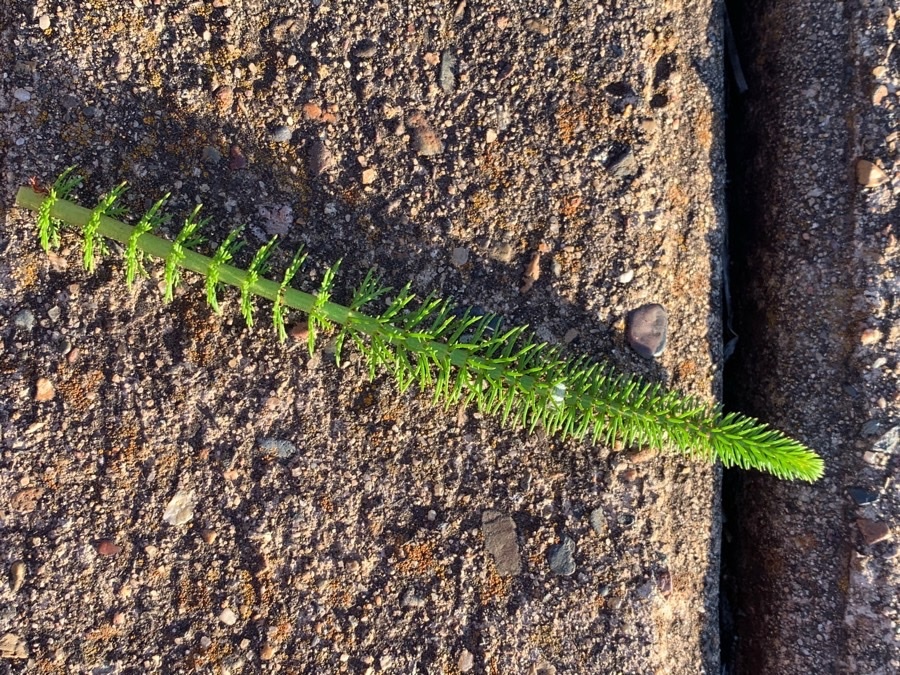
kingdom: Plantae
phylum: Tracheophyta
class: Magnoliopsida
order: Saxifragales
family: Haloragaceae
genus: Myriophyllum
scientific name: Myriophyllum crispatum
